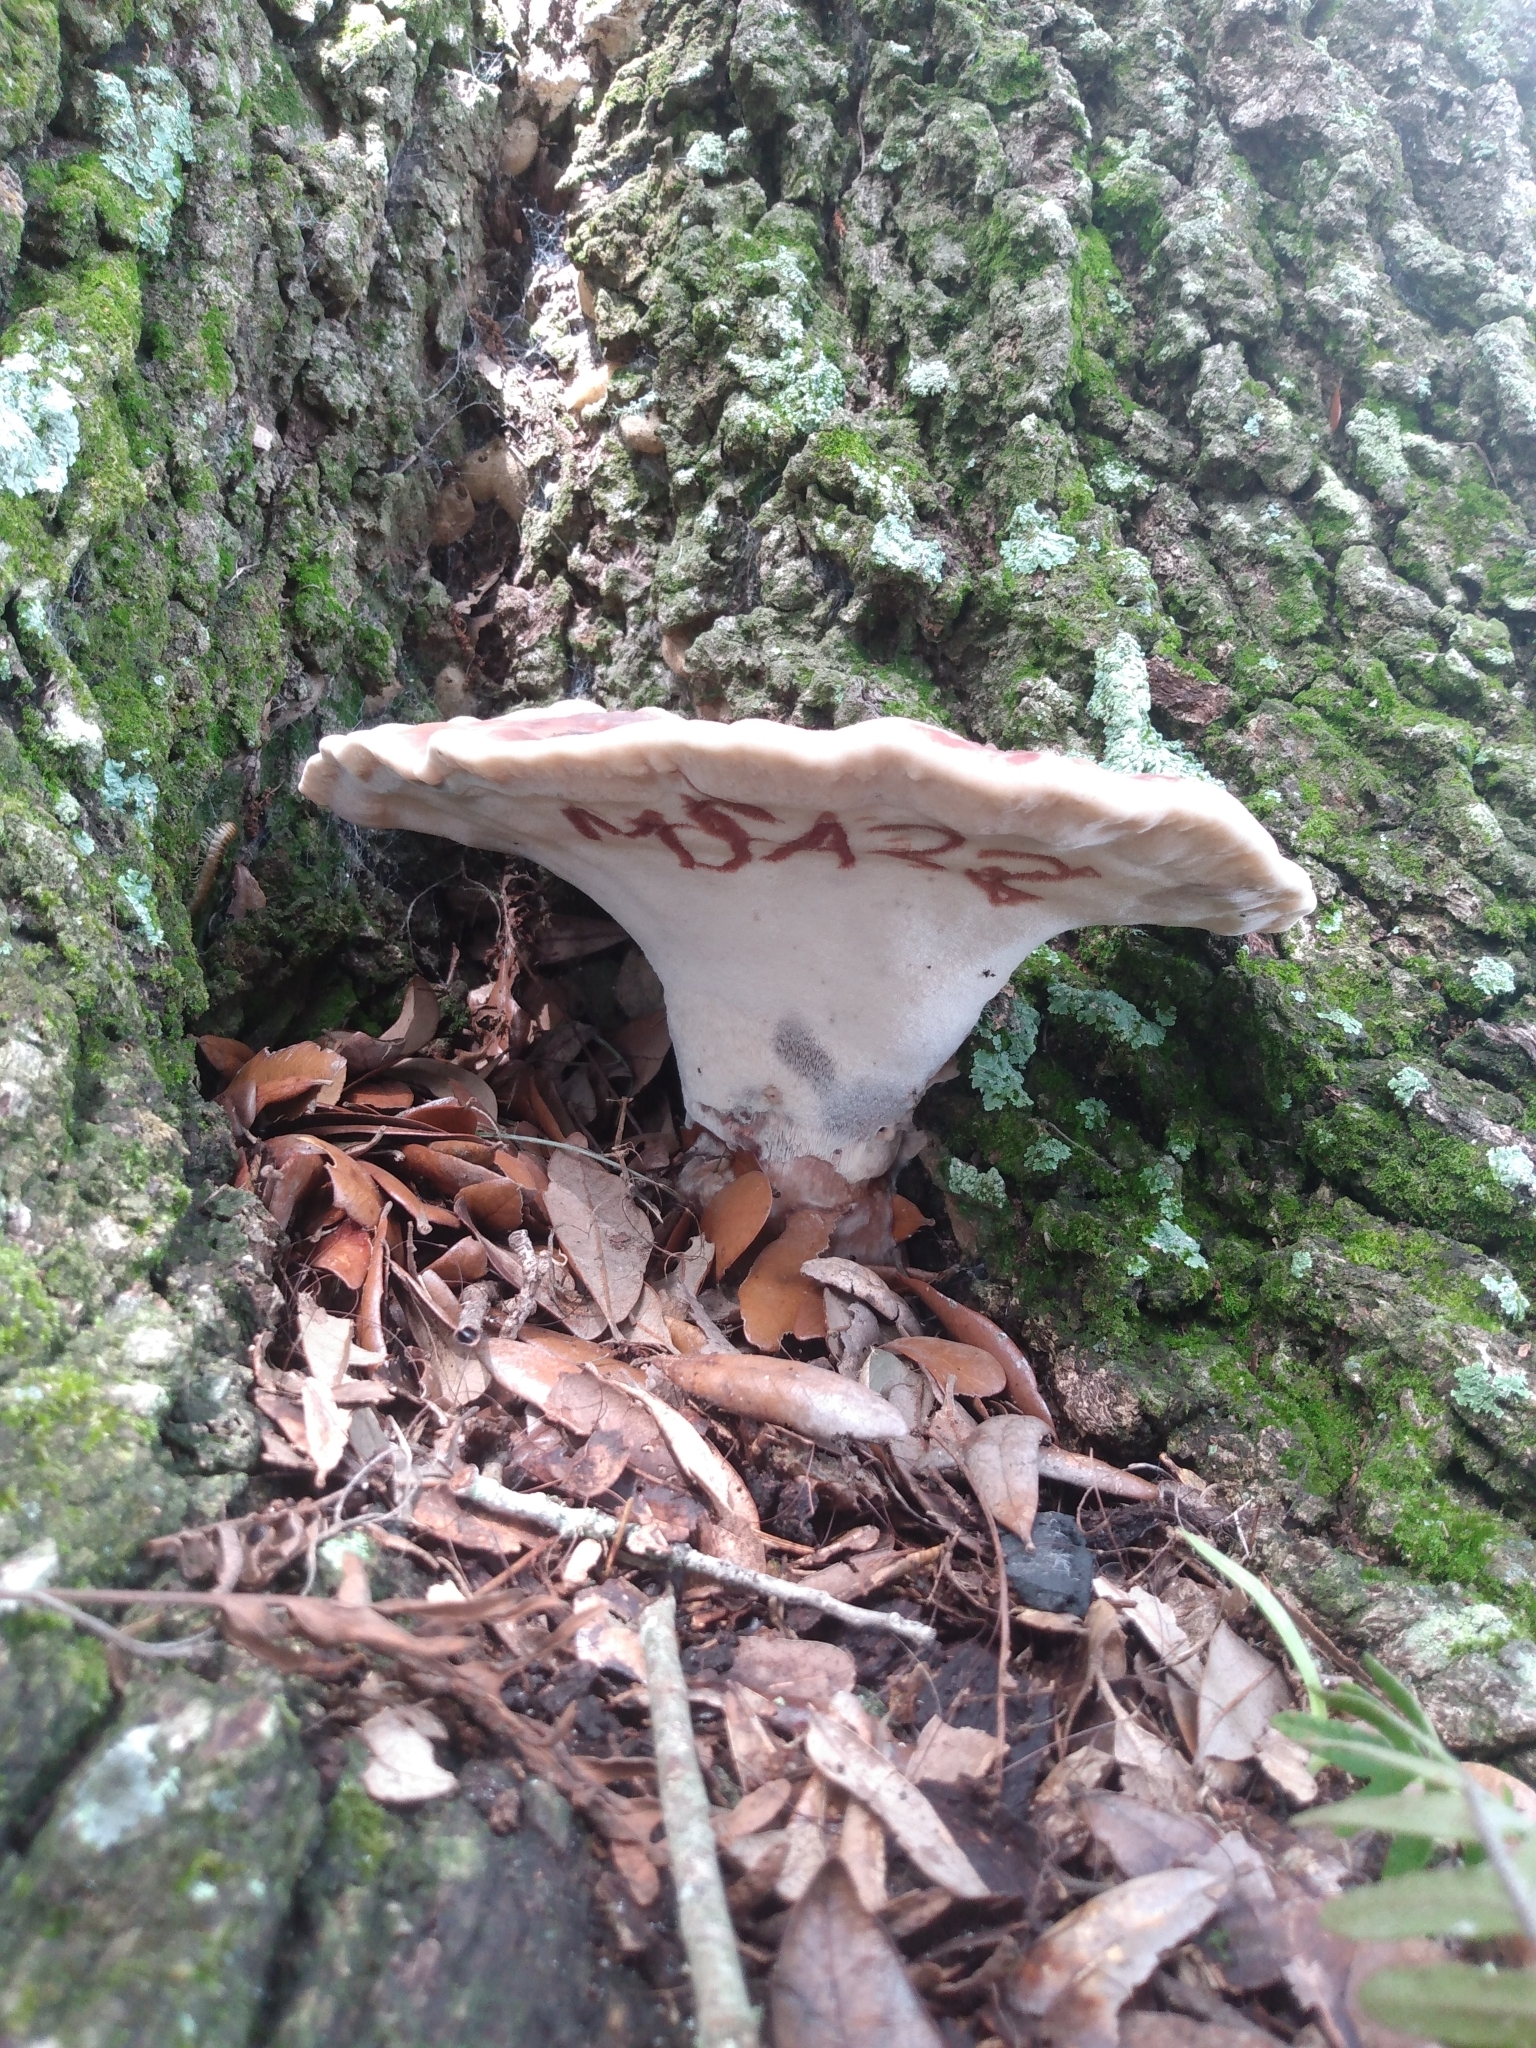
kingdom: Fungi
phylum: Basidiomycota
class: Agaricomycetes
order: Polyporales
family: Laetiporaceae
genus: Berkcurtia
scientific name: Berkcurtia persicina
